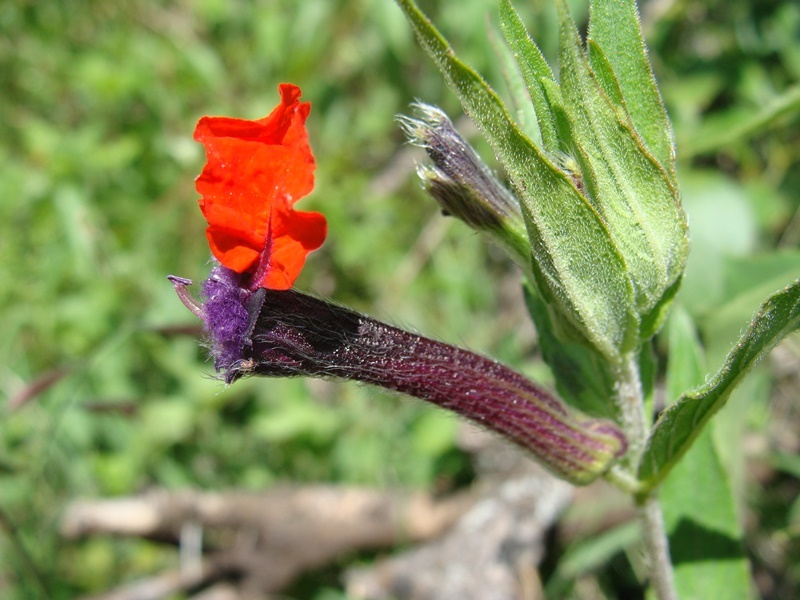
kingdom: Plantae
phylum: Tracheophyta
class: Magnoliopsida
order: Myrtales
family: Lythraceae
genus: Cuphea
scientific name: Cuphea llavea
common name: Tiny-mice
